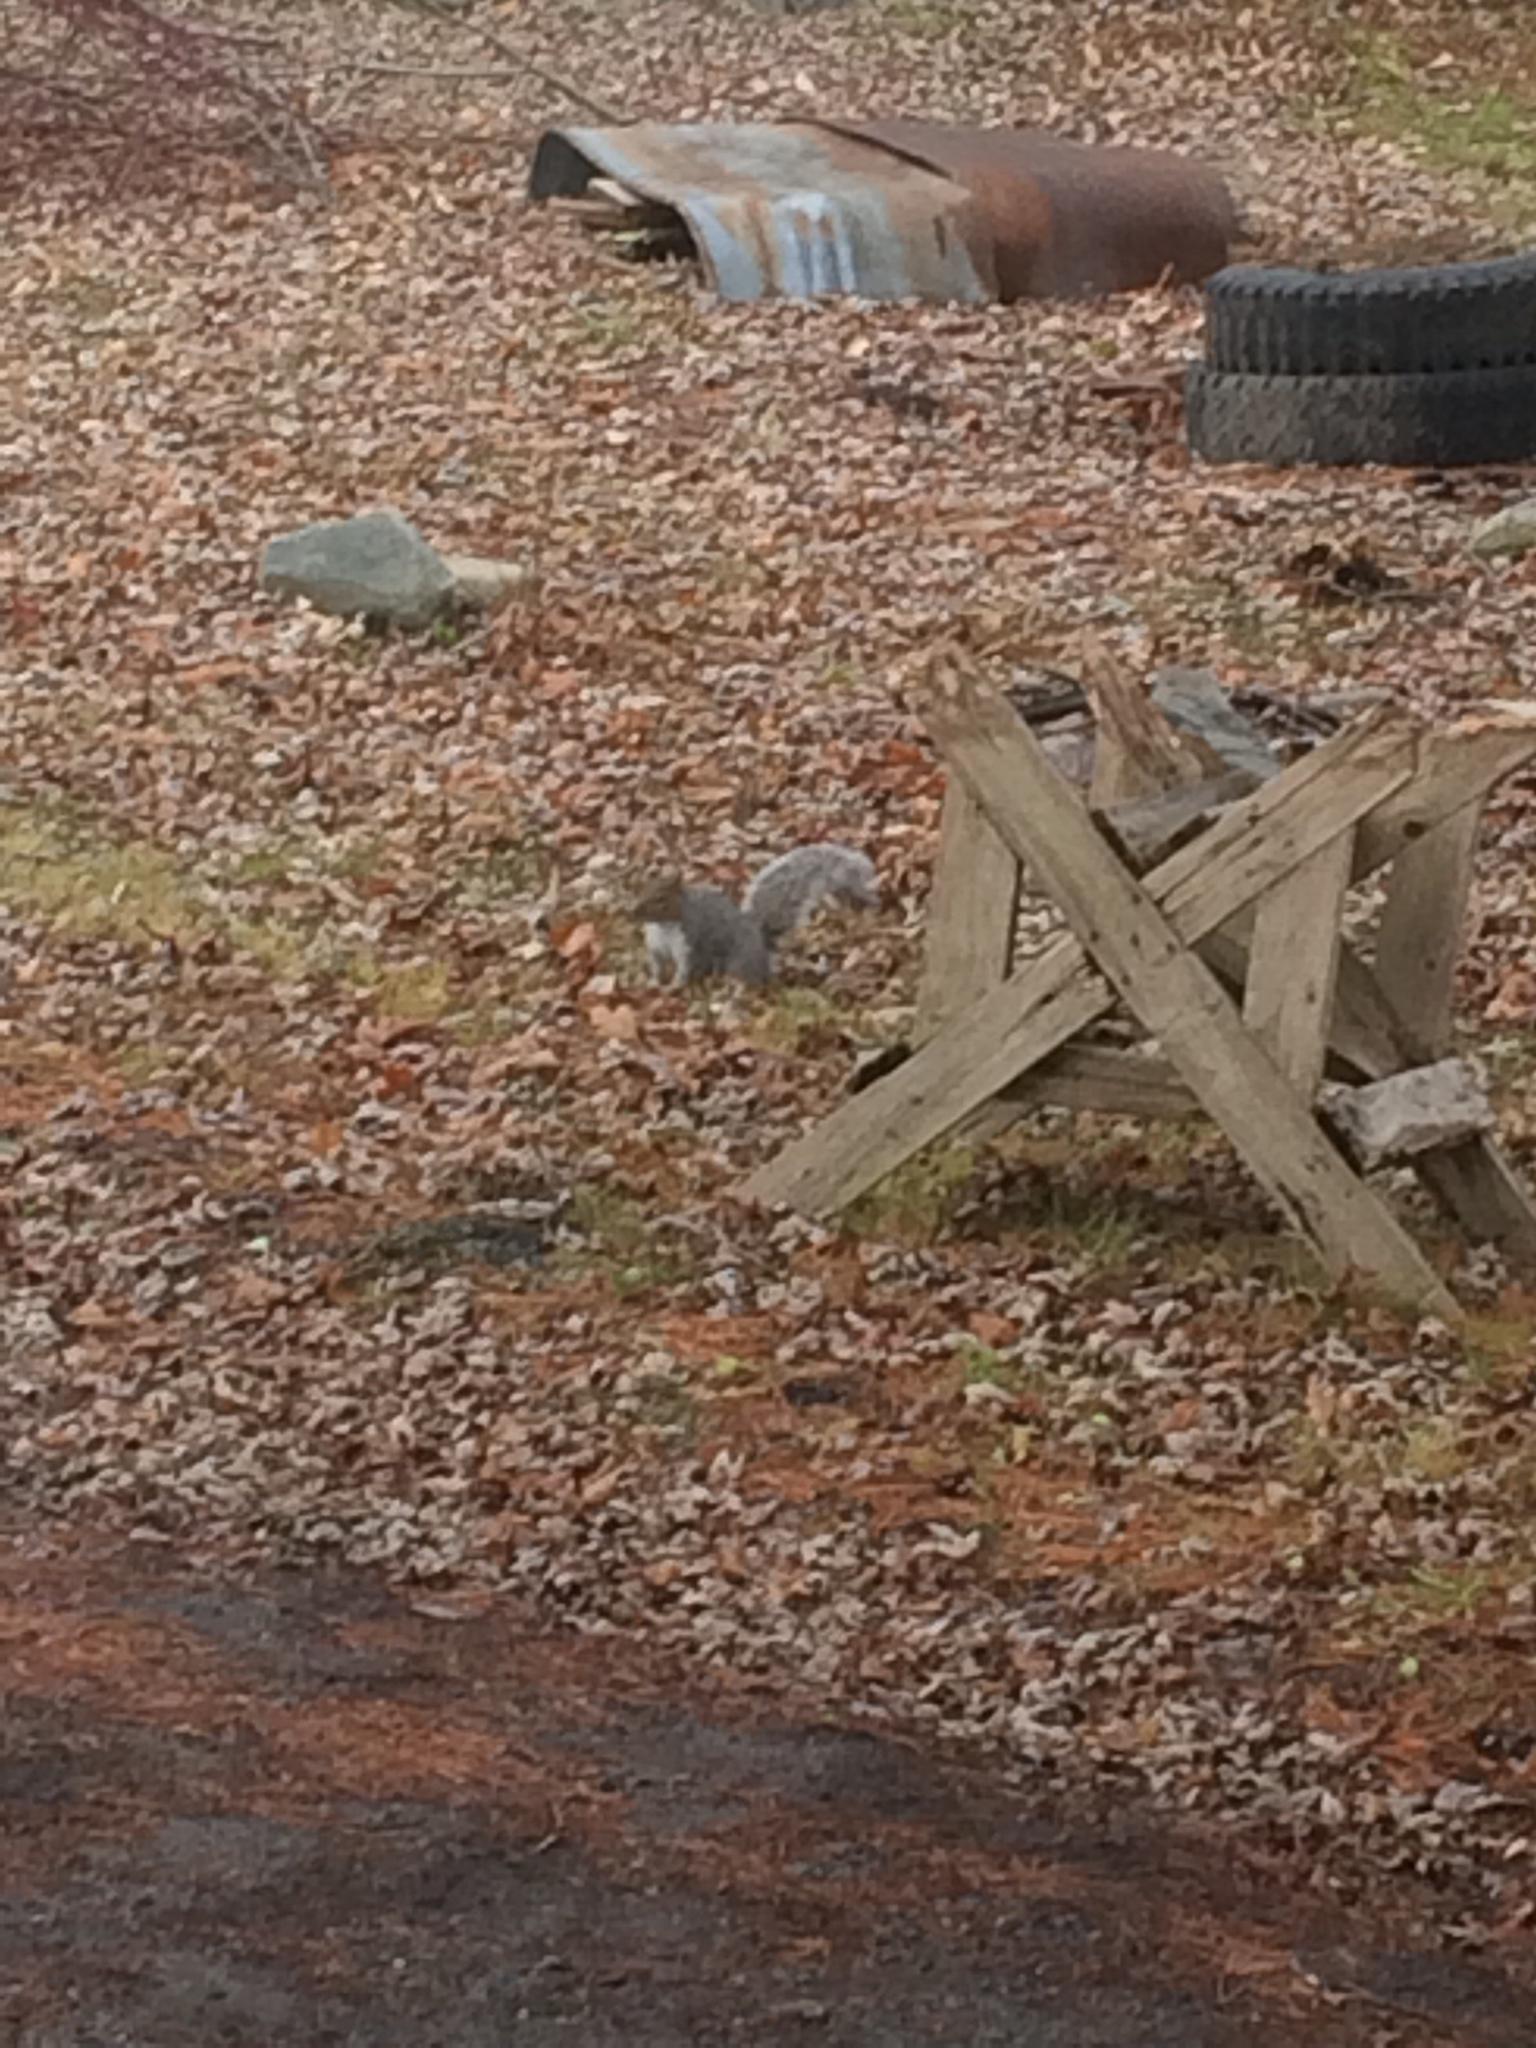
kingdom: Animalia
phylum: Chordata
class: Mammalia
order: Rodentia
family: Sciuridae
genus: Sciurus
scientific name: Sciurus carolinensis
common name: Eastern gray squirrel
